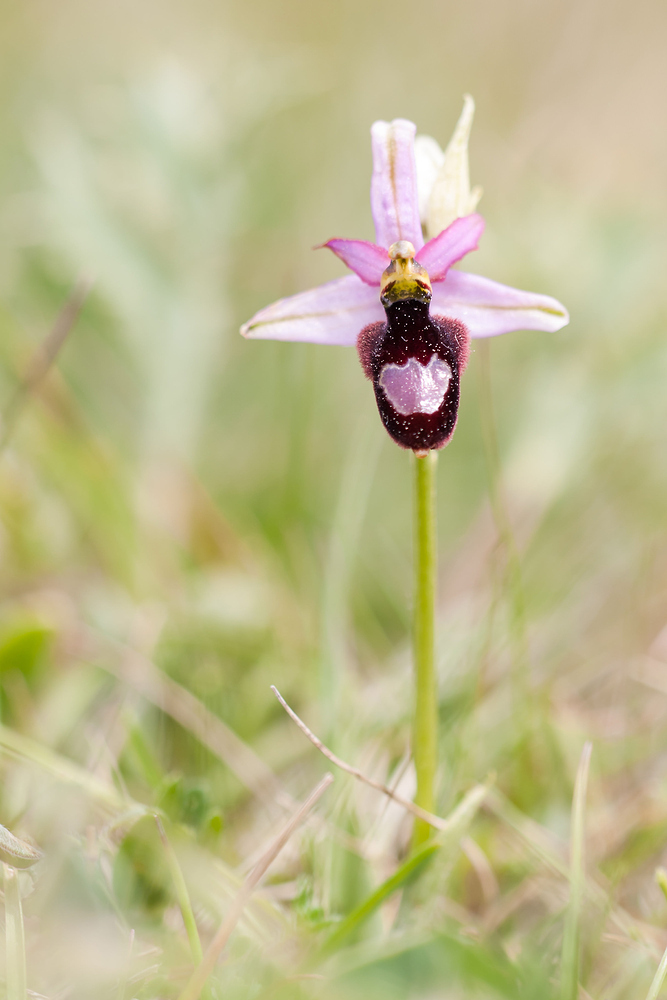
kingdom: Plantae
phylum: Tracheophyta
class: Liliopsida
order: Asparagales
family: Orchidaceae
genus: Ophrys
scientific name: Ophrys flavicans
